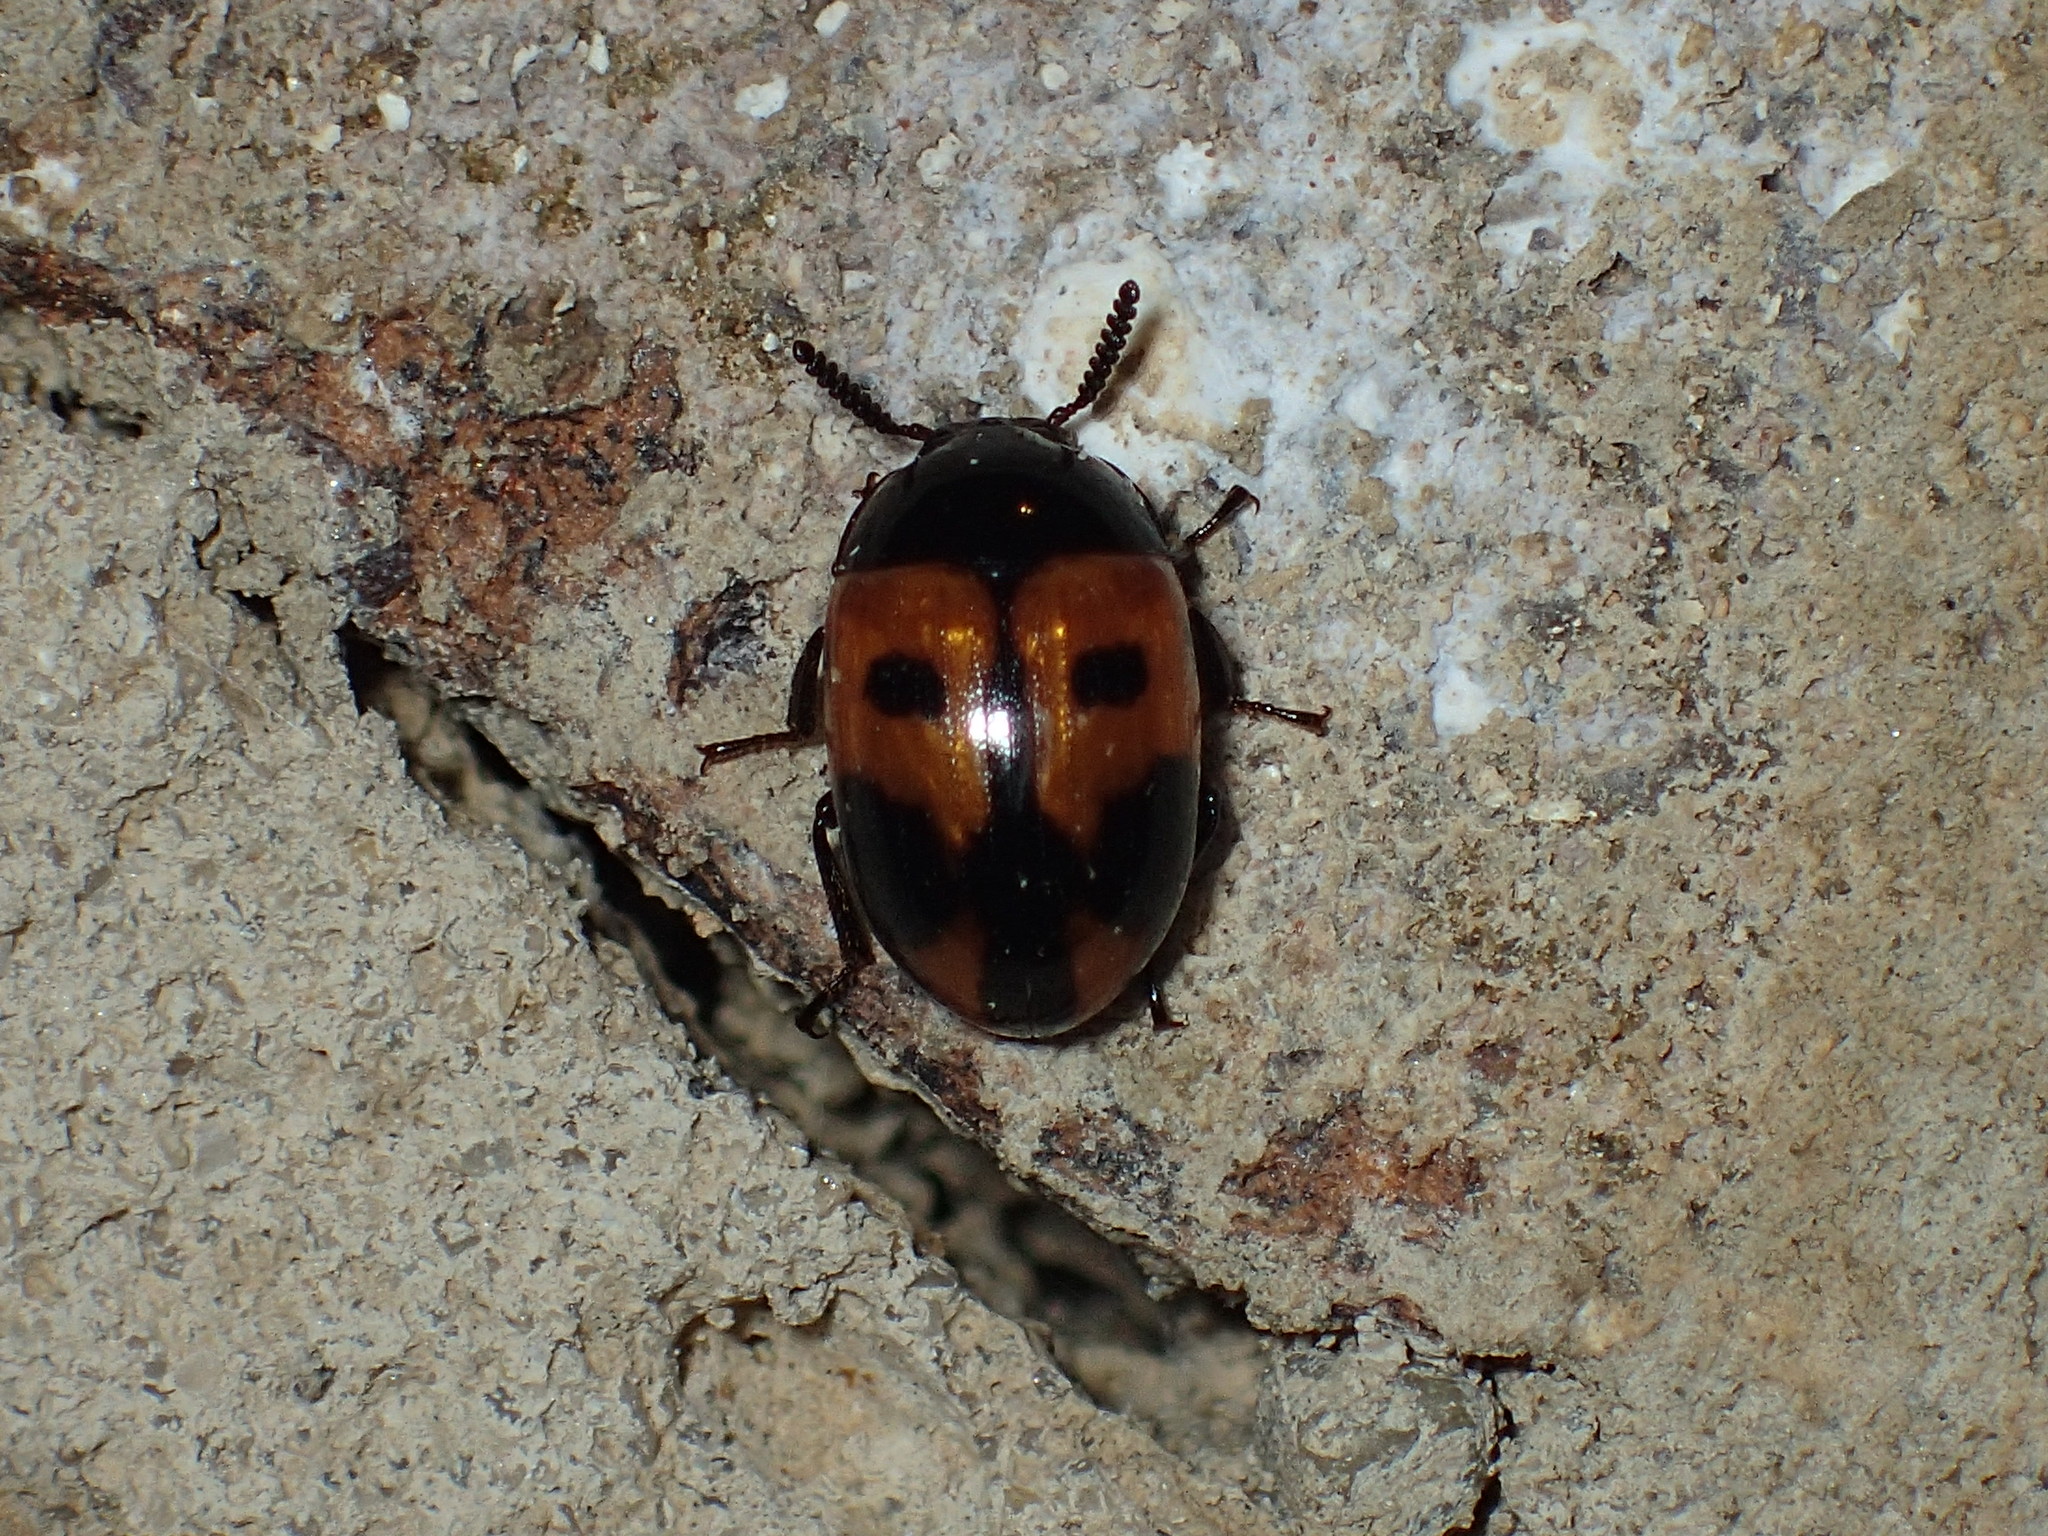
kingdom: Animalia
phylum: Arthropoda
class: Insecta
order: Coleoptera
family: Tenebrionidae
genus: Diaperis
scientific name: Diaperis maculata
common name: Darkling beetle
